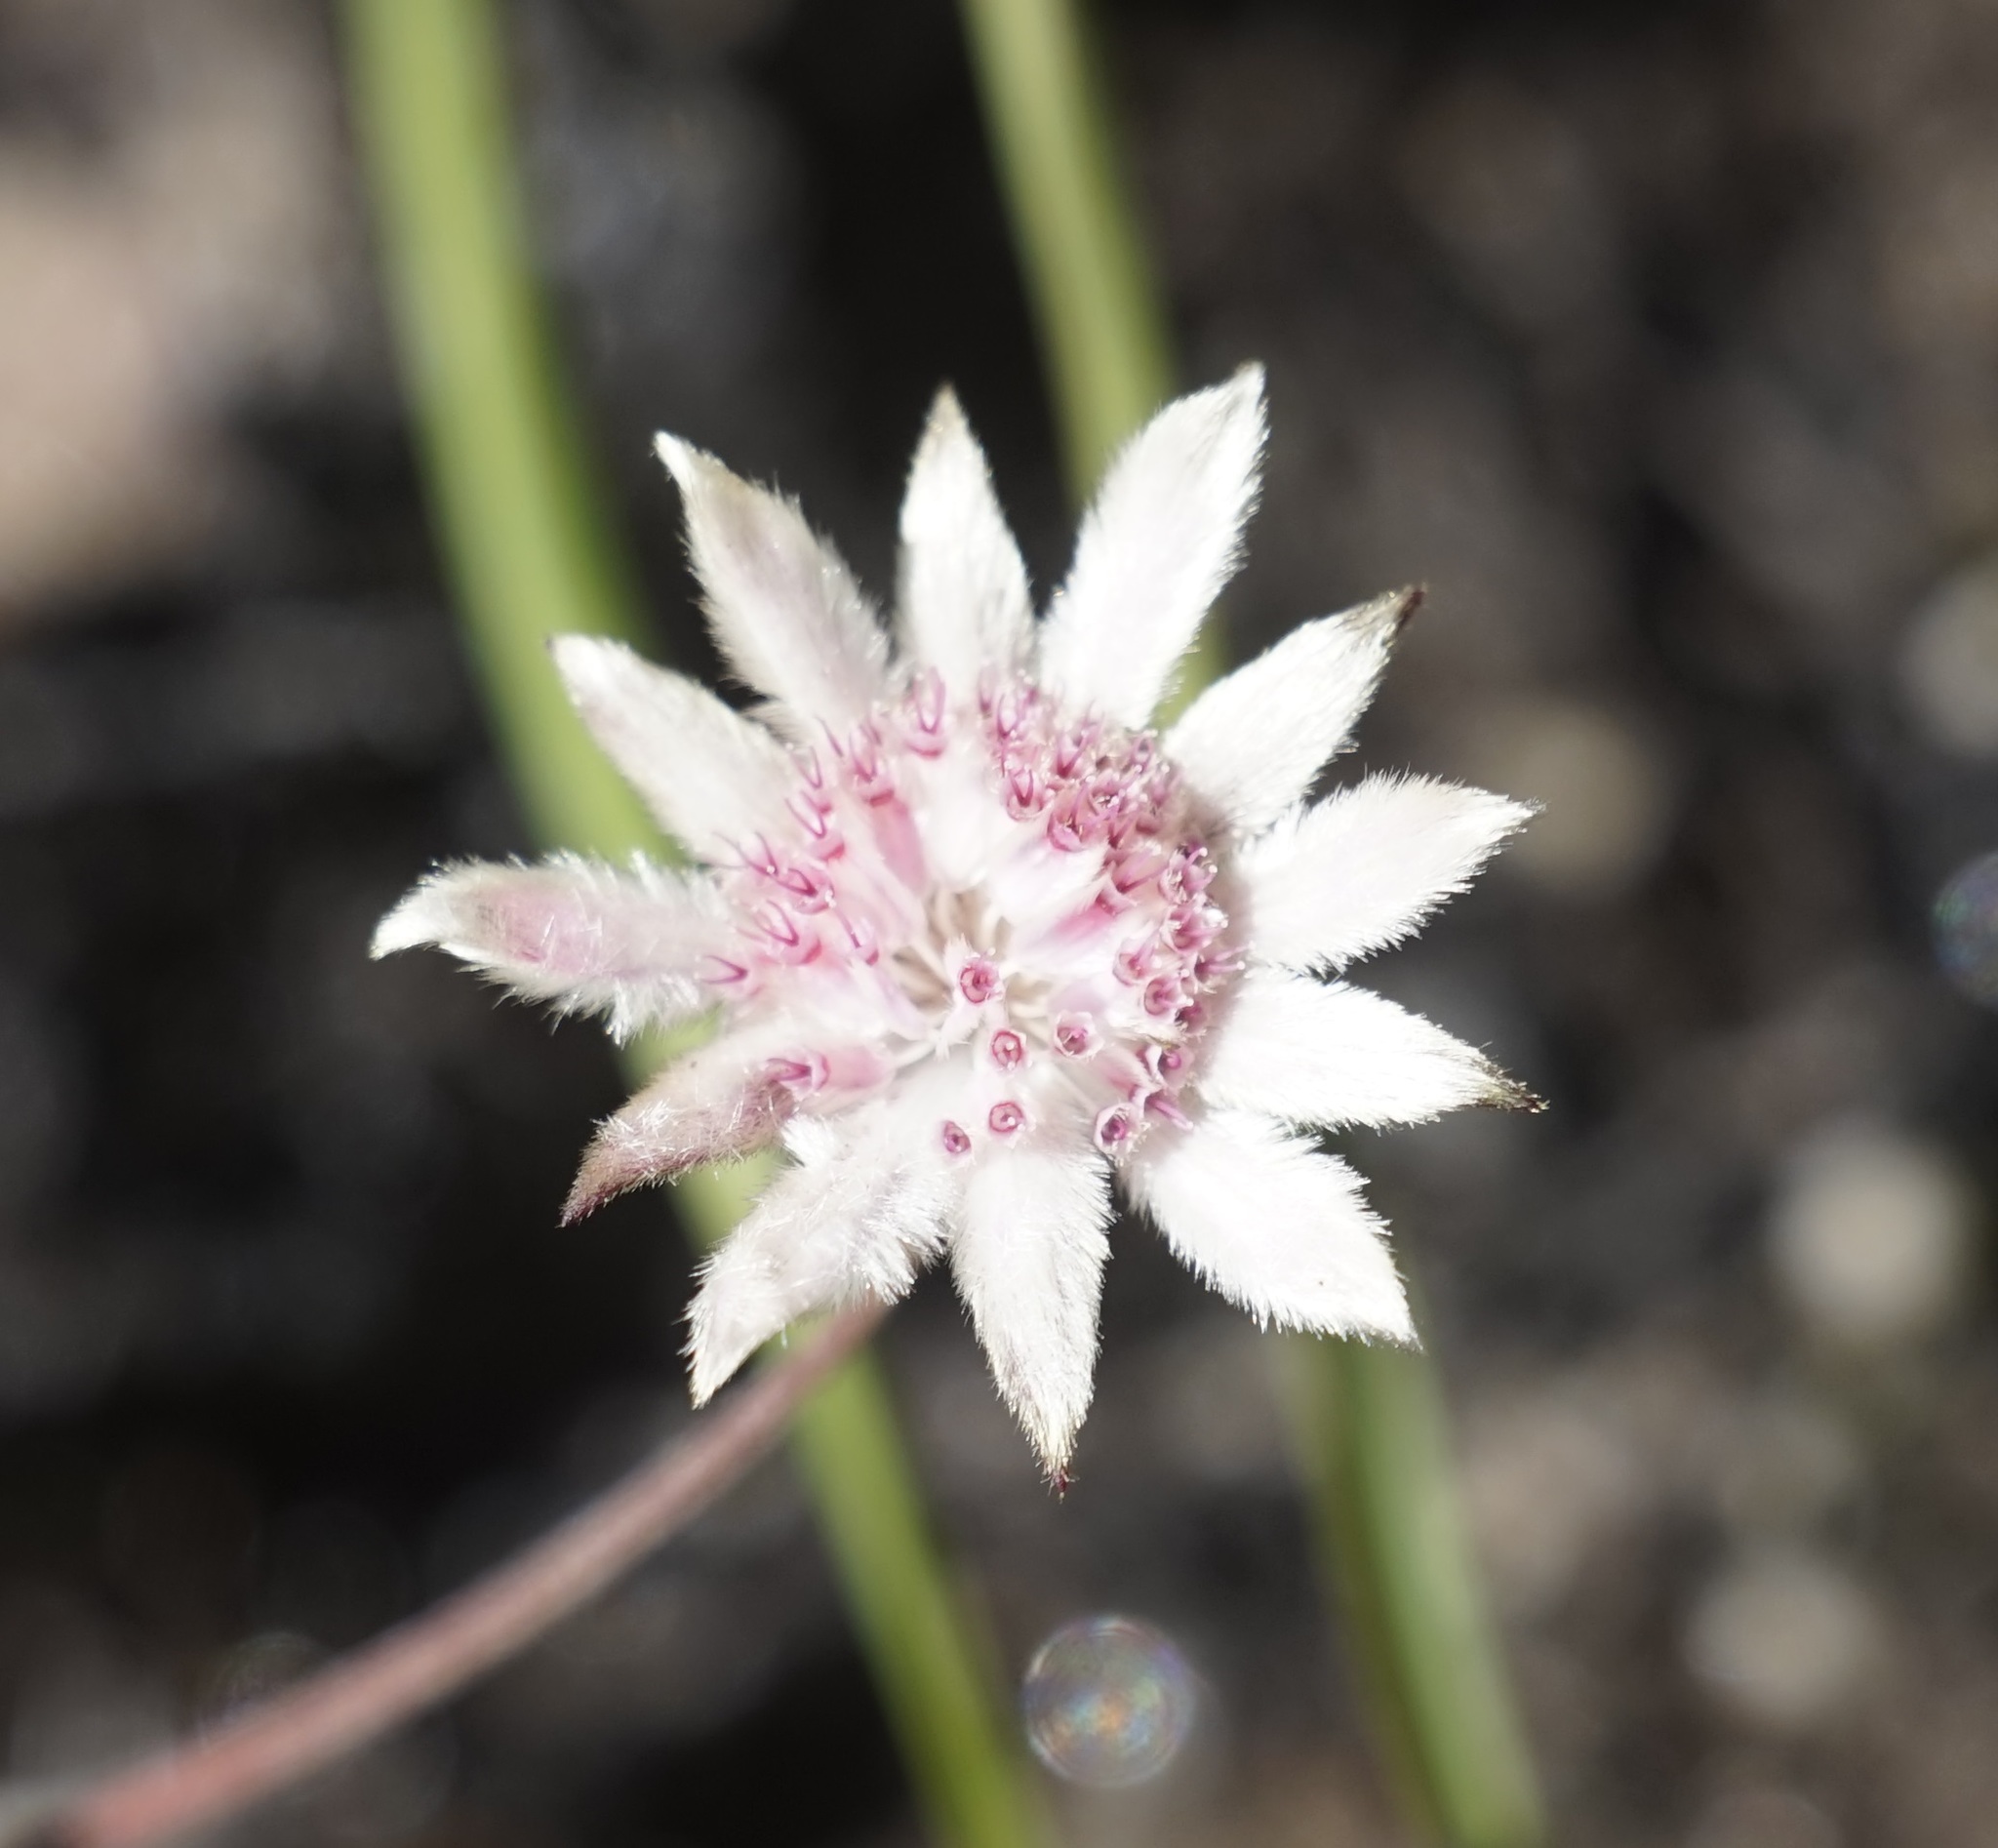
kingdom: Plantae
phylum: Tracheophyta
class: Magnoliopsida
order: Apiales
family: Apiaceae
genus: Actinotus
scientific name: Actinotus forsythii
